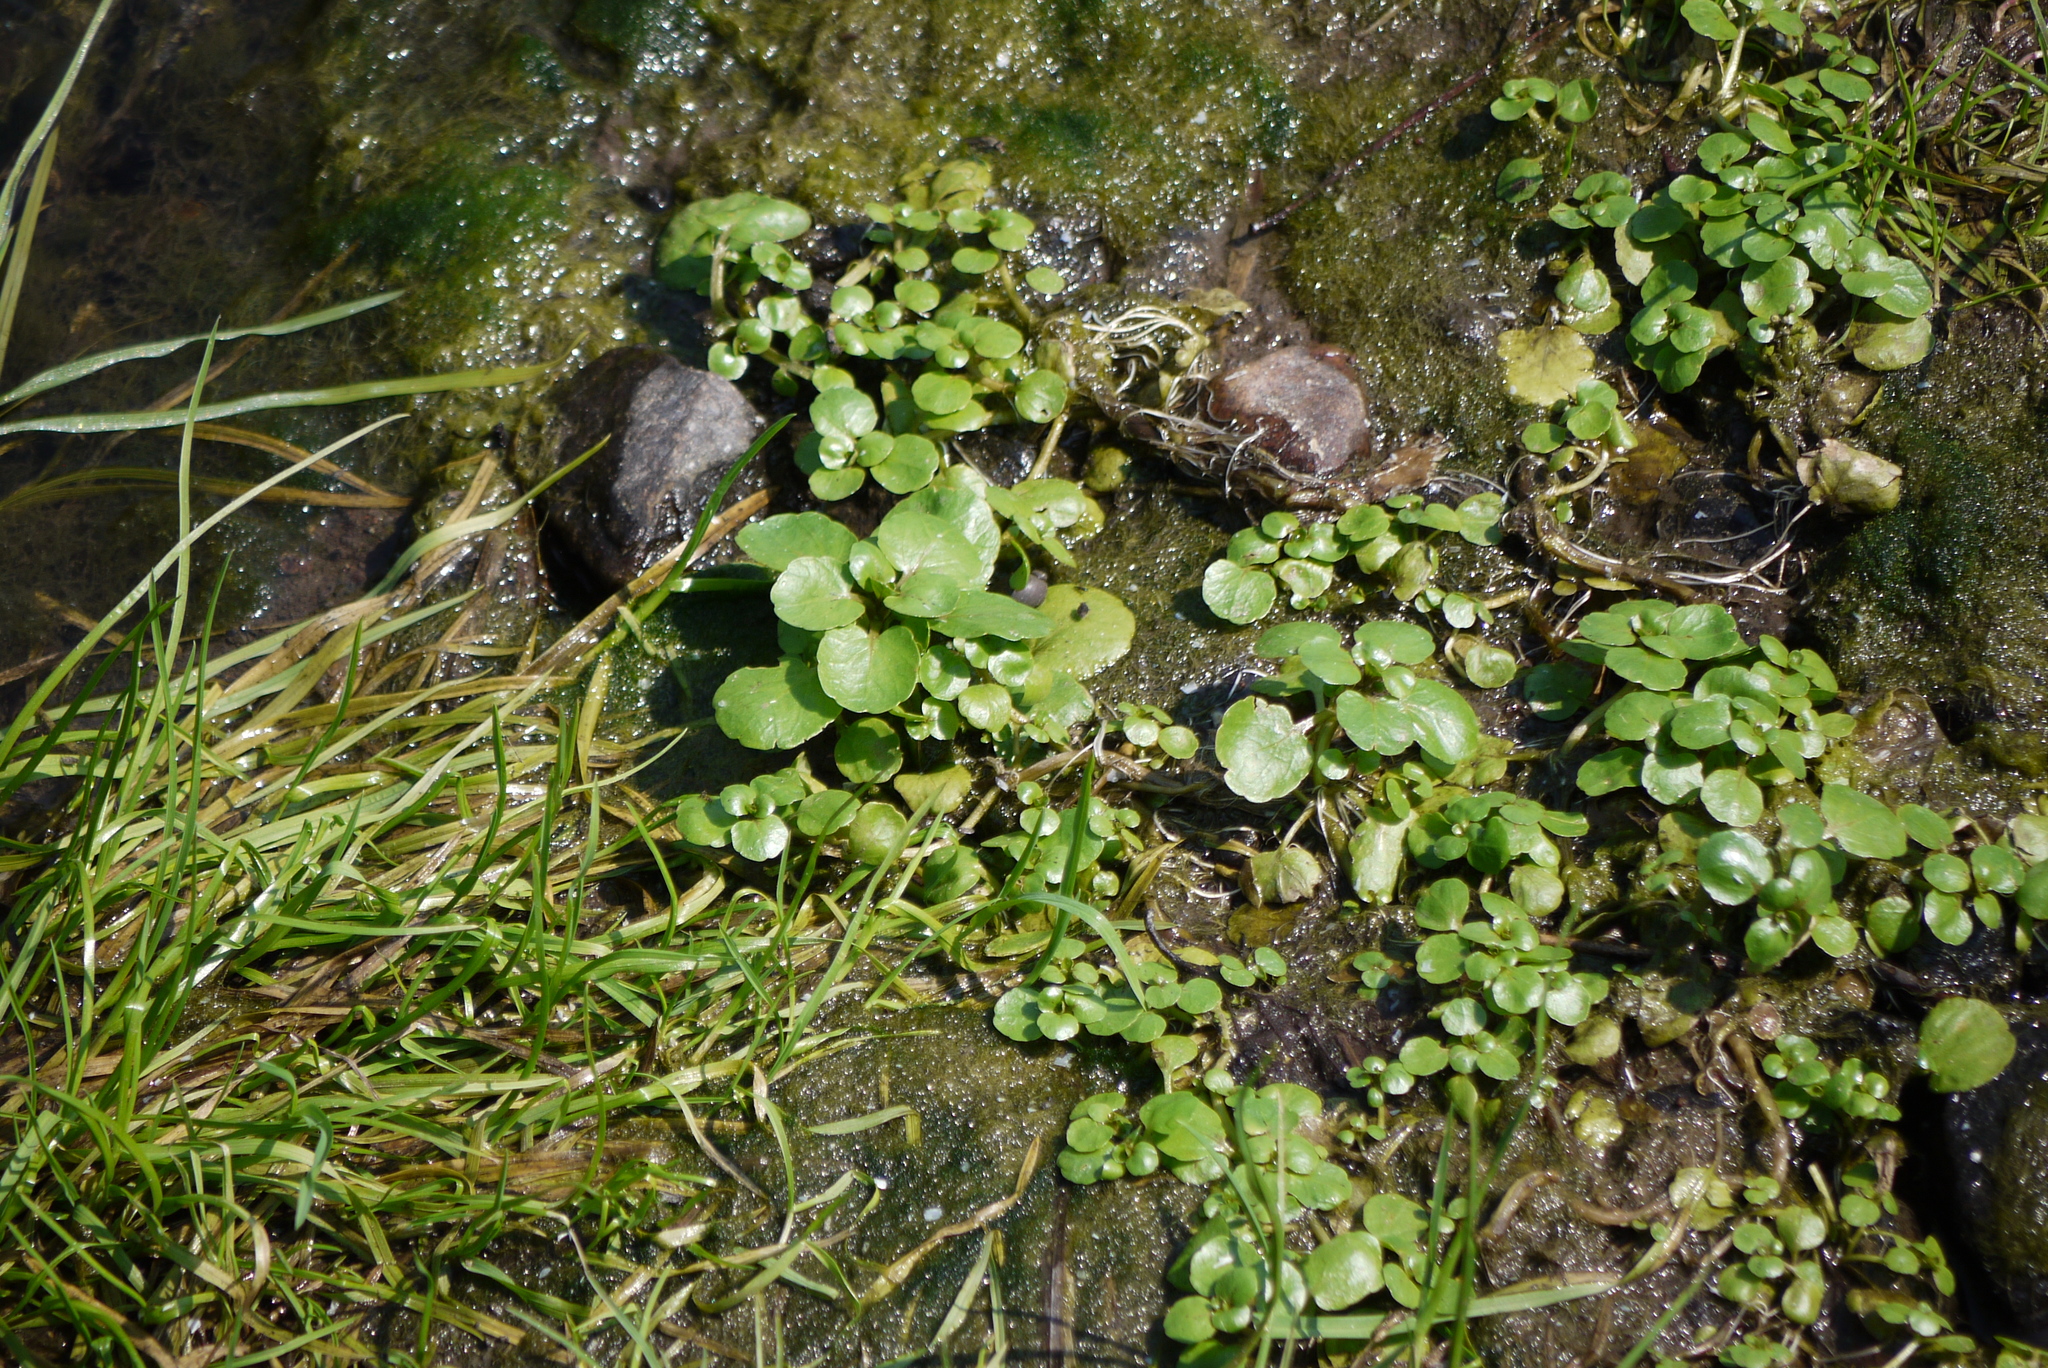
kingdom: Plantae
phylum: Tracheophyta
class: Magnoliopsida
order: Saxifragales
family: Saxifragaceae
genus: Chrysosplenium
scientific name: Chrysosplenium oppositifolium
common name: Opposite-leaved golden-saxifrage
